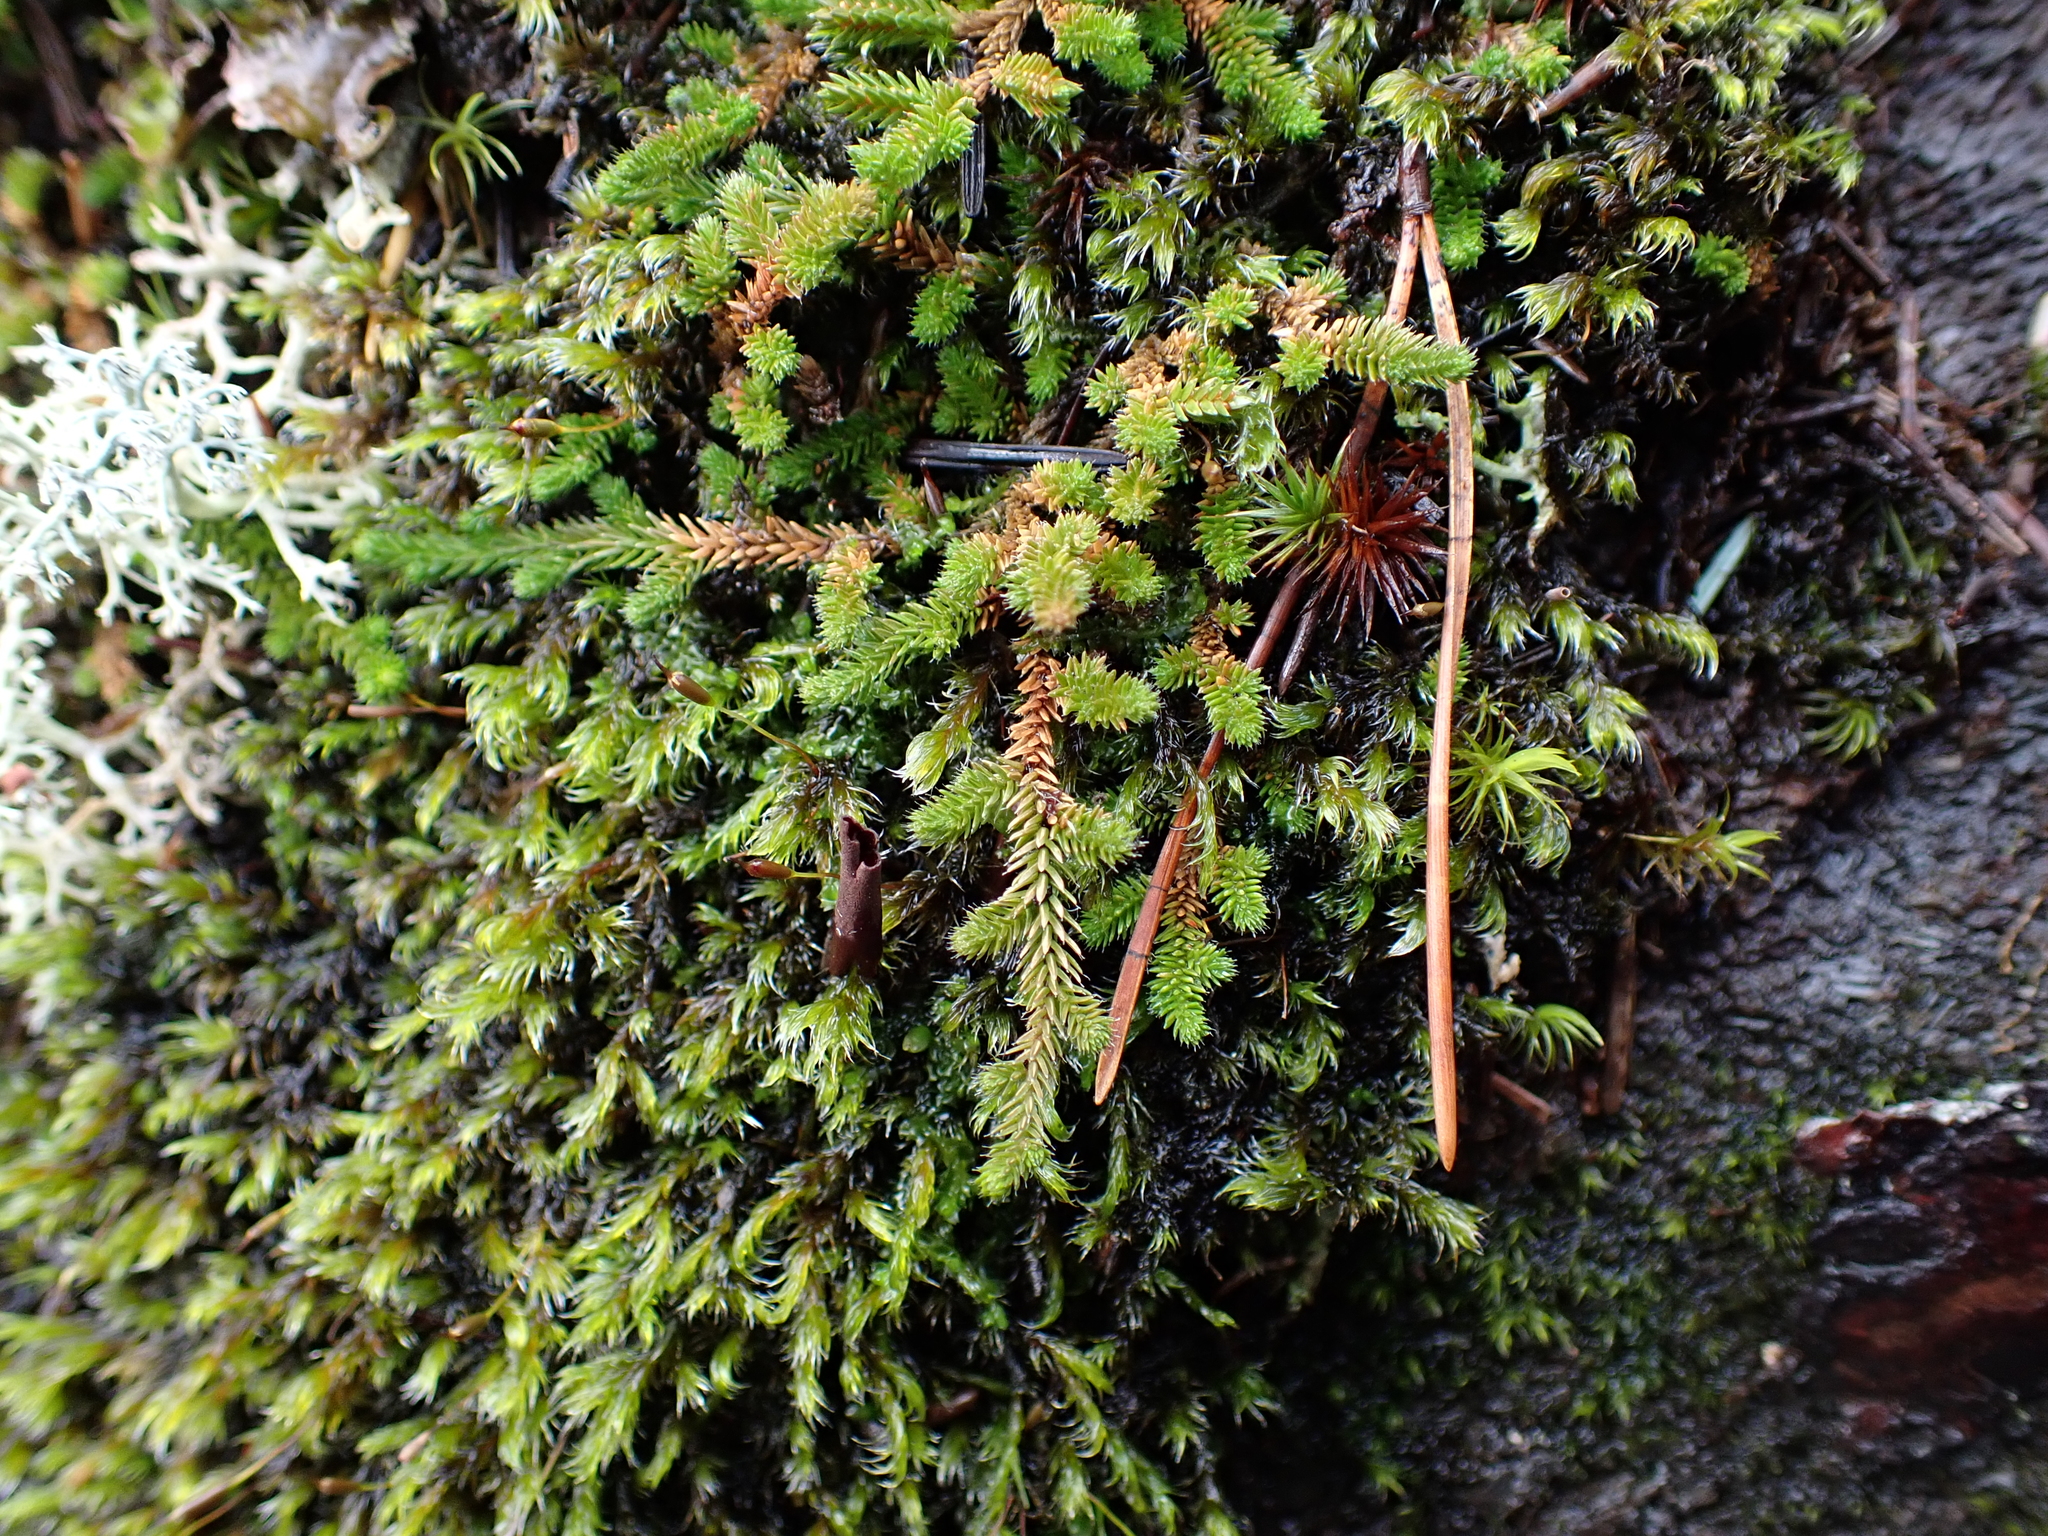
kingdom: Plantae
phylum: Tracheophyta
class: Lycopodiopsida
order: Selaginellales
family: Selaginellaceae
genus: Selaginella
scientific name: Selaginella wallacei
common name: Wallace's selaginella
